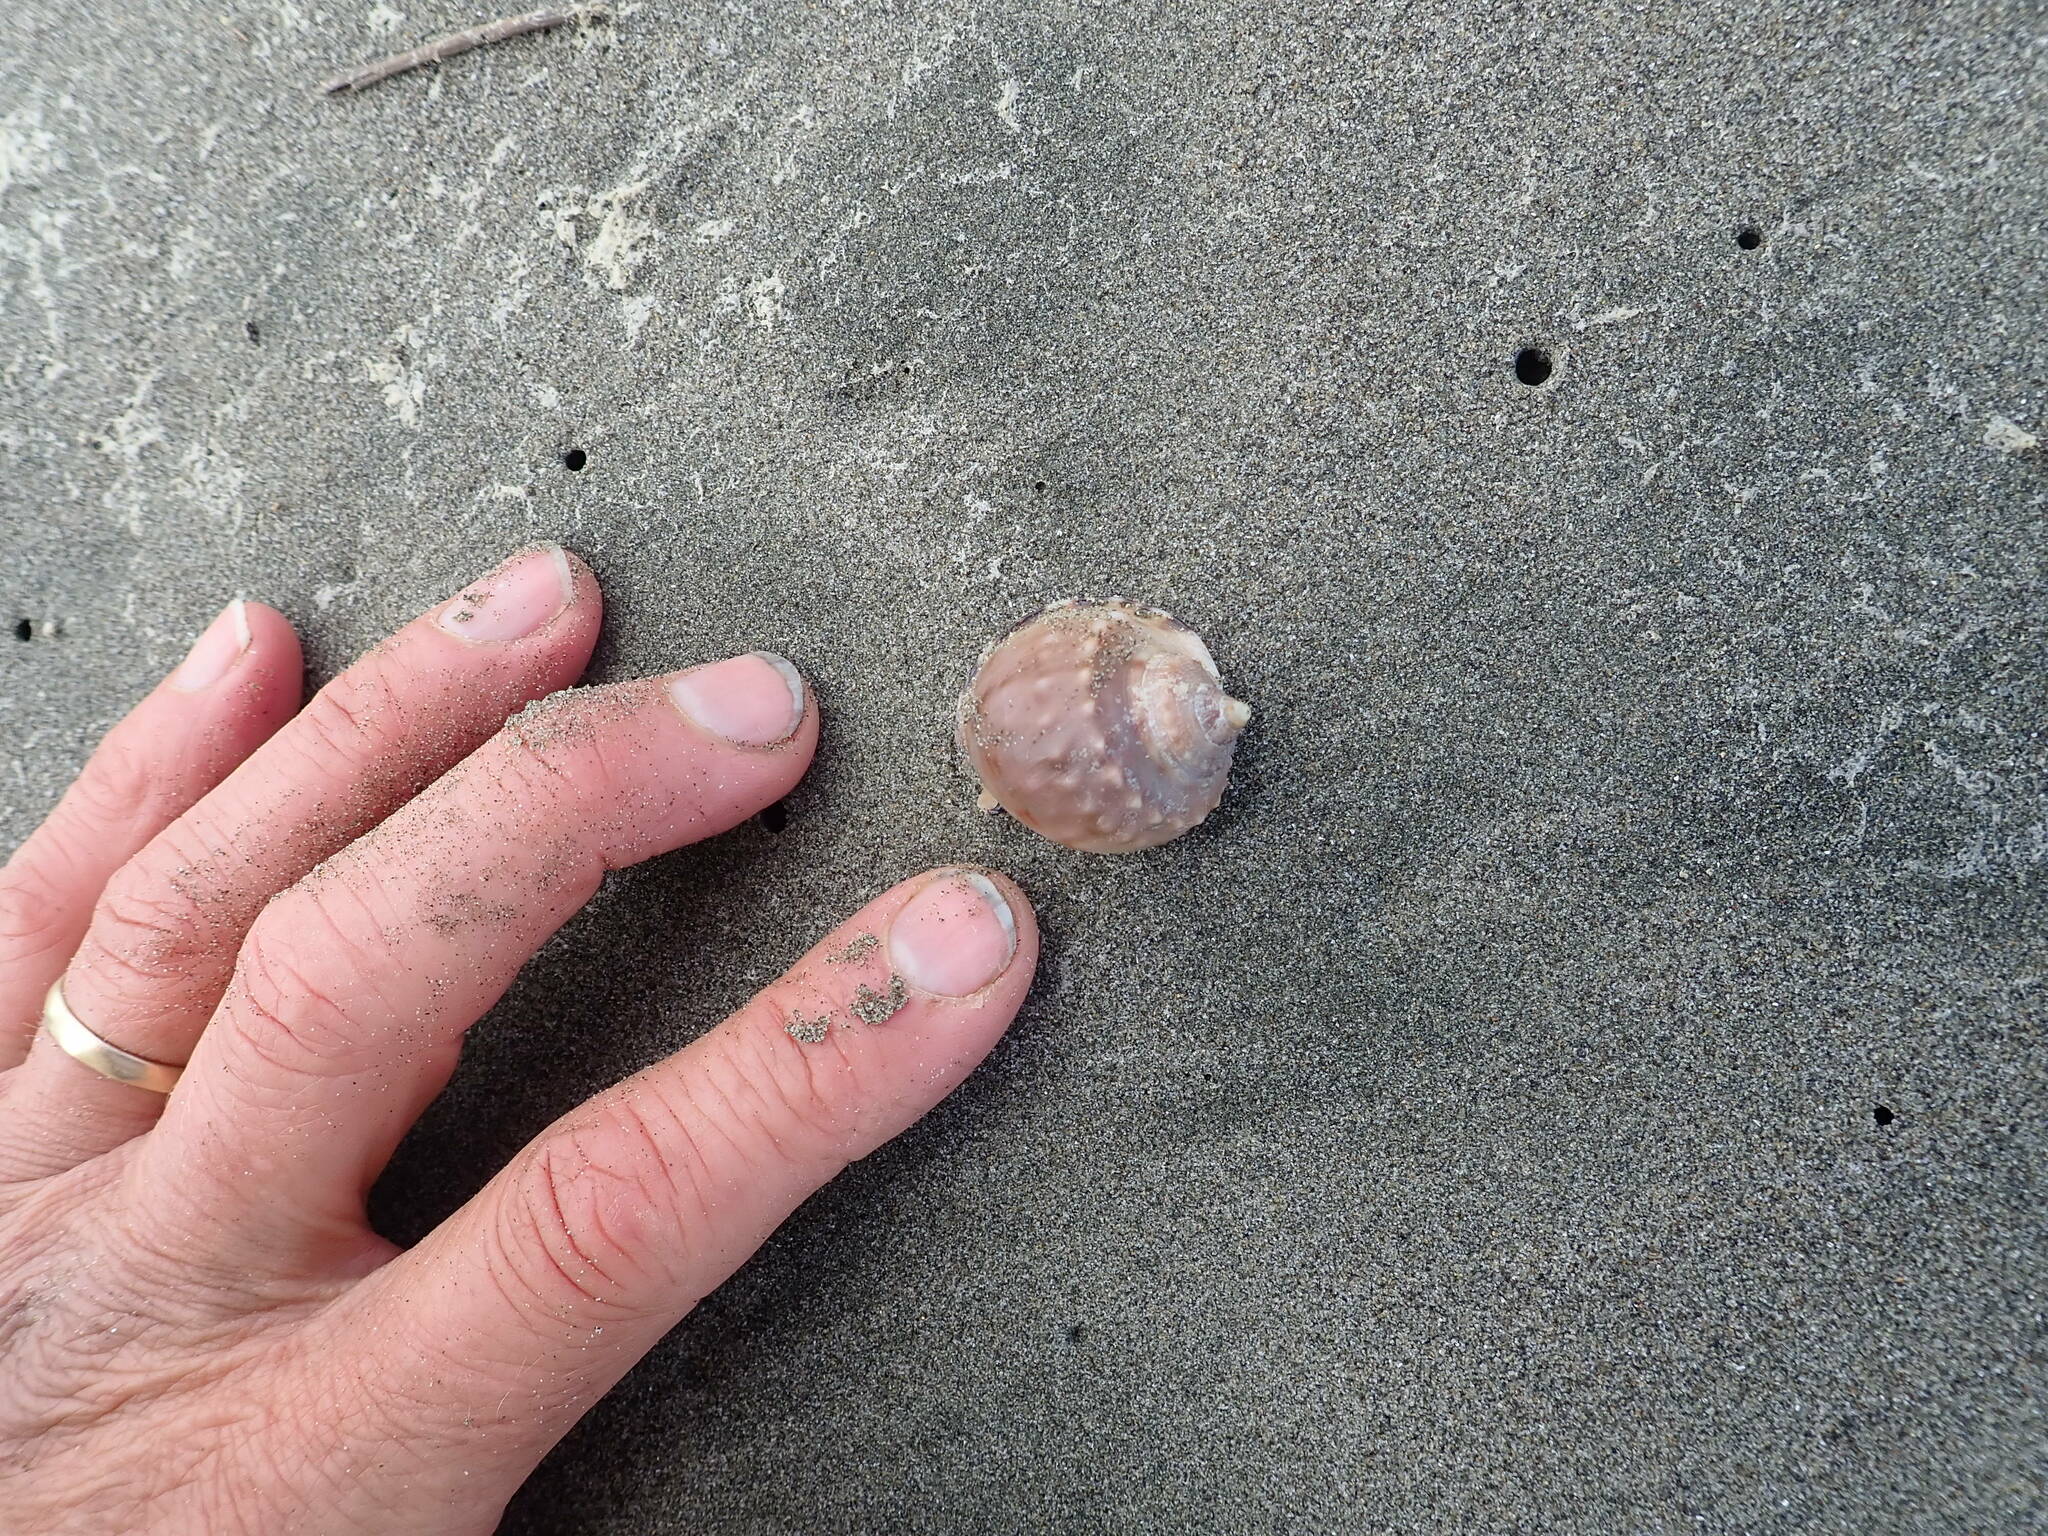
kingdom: Animalia
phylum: Mollusca
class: Gastropoda
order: Littorinimorpha
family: Cassidae
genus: Semicassis
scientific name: Semicassis pyrum
